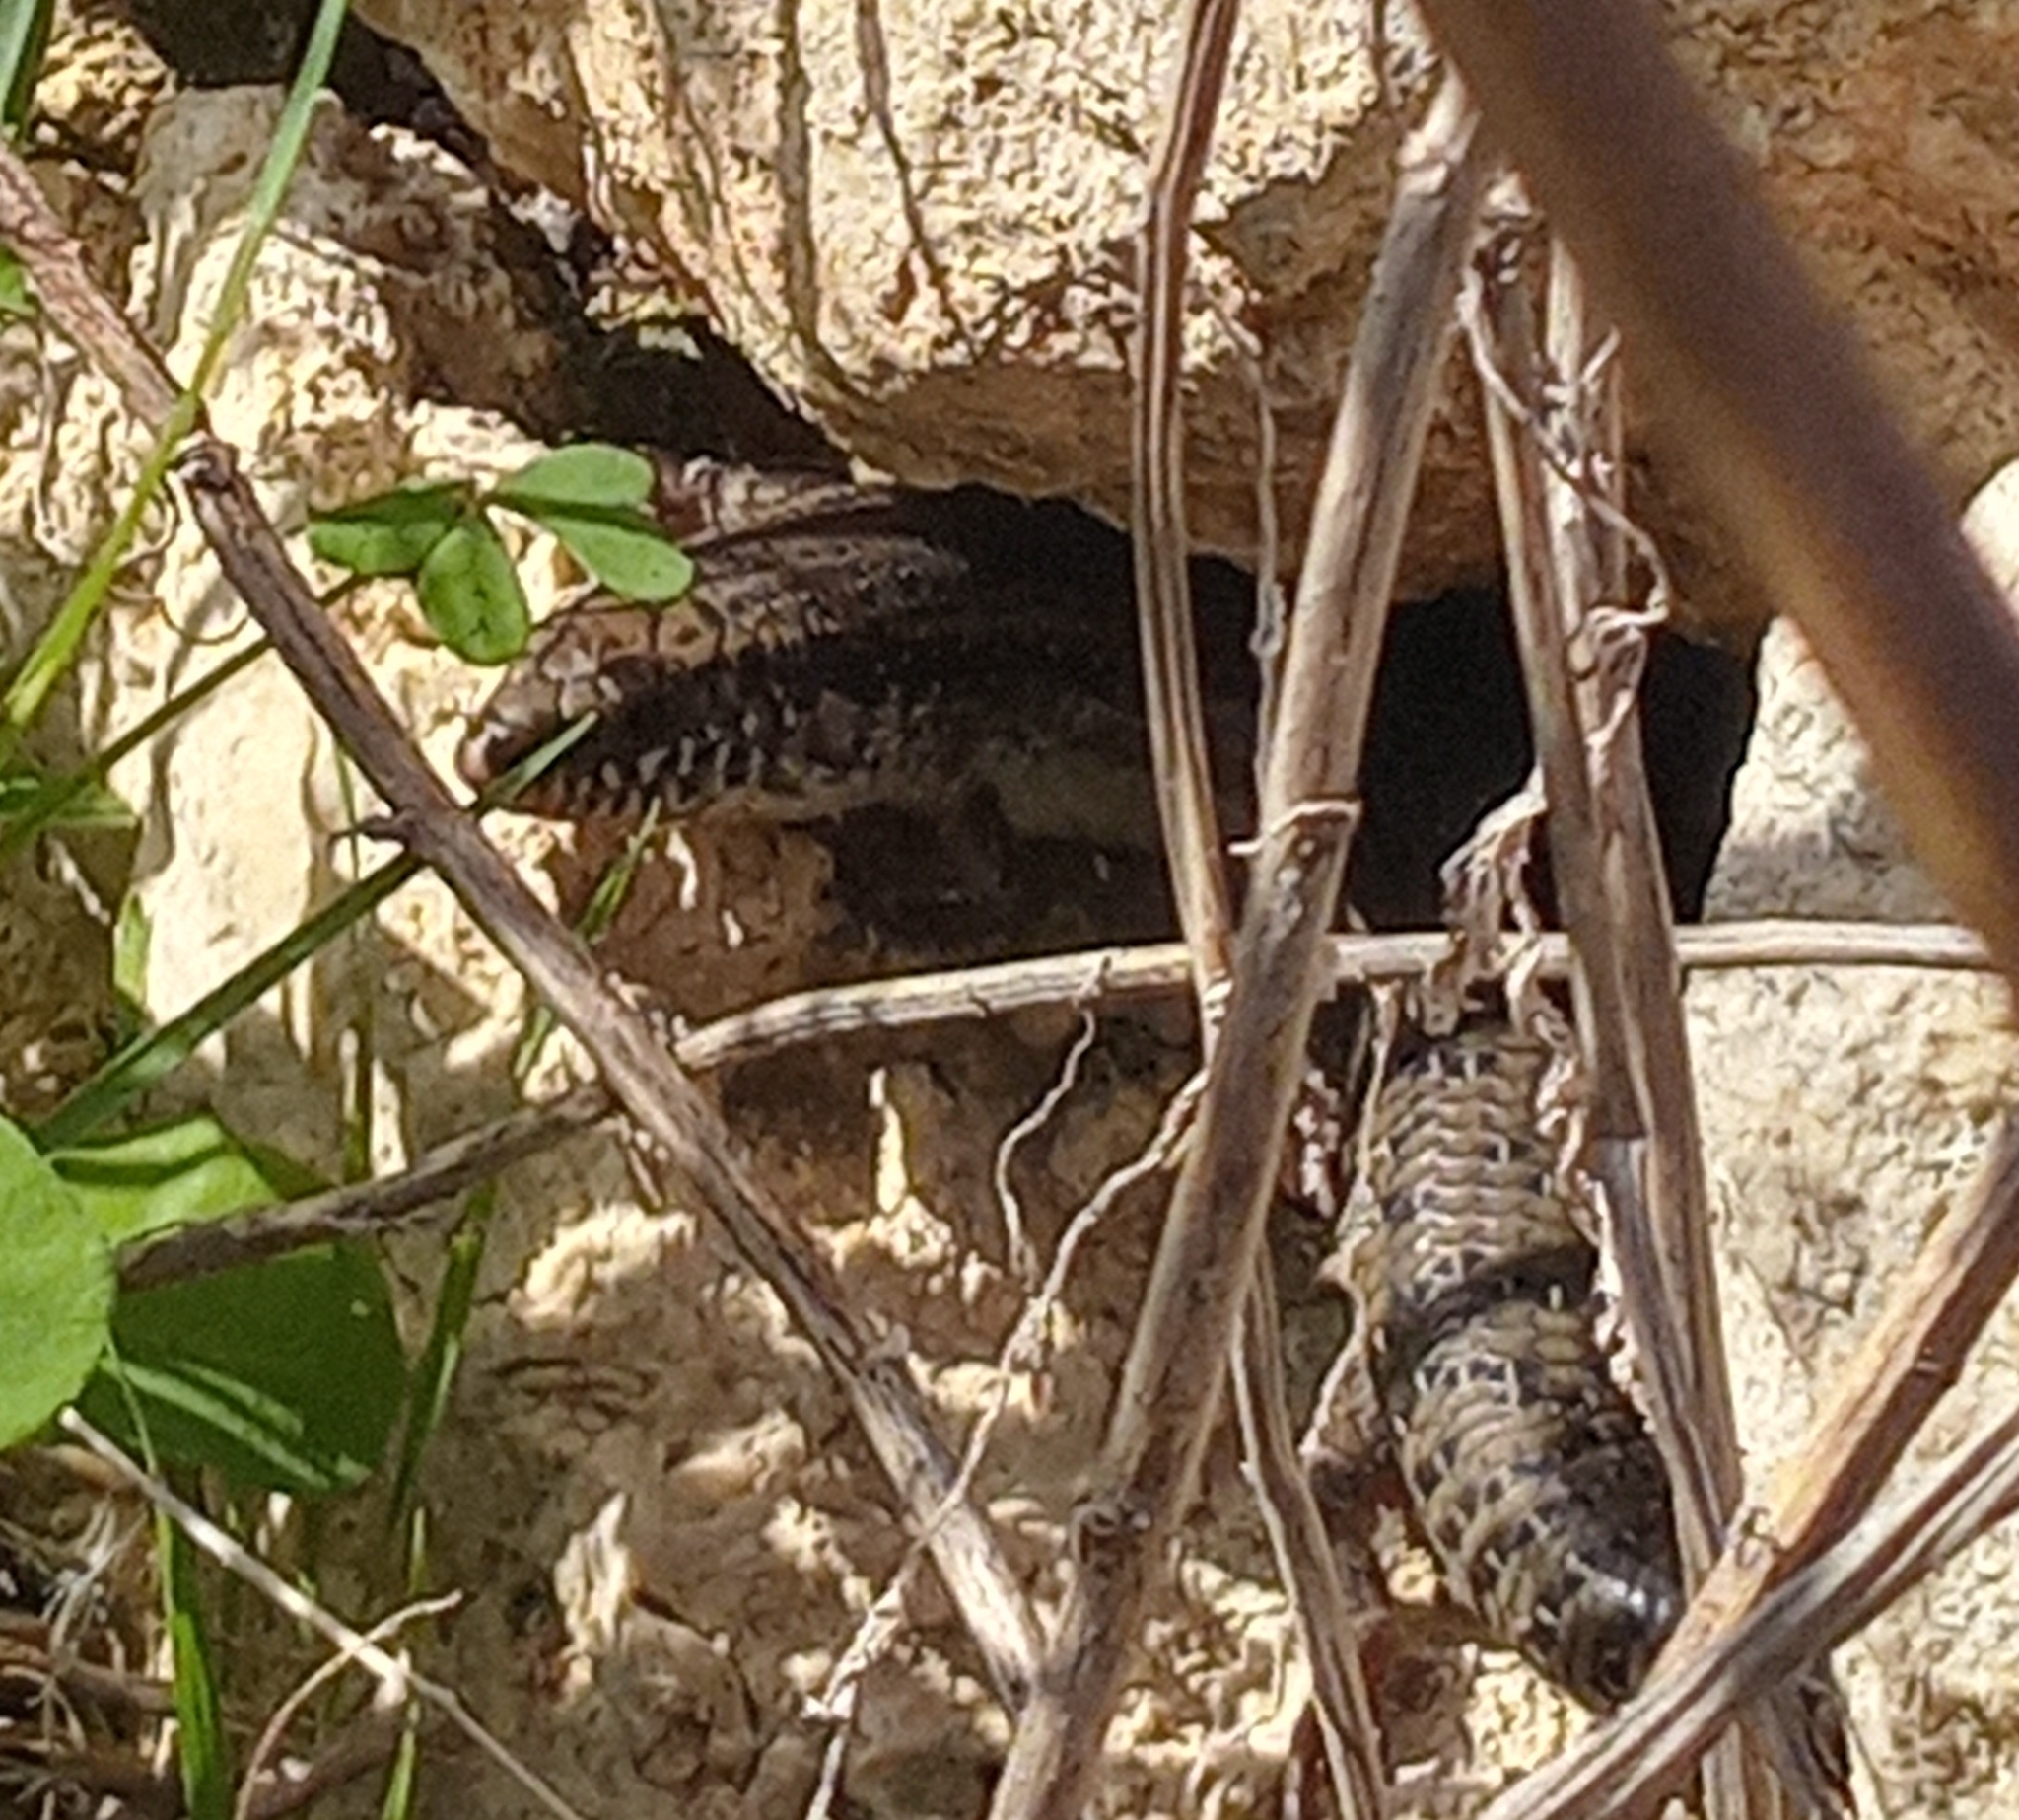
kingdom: Animalia
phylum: Chordata
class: Squamata
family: Scincidae
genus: Chalcides
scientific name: Chalcides ocellatus
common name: Ocellated skink
